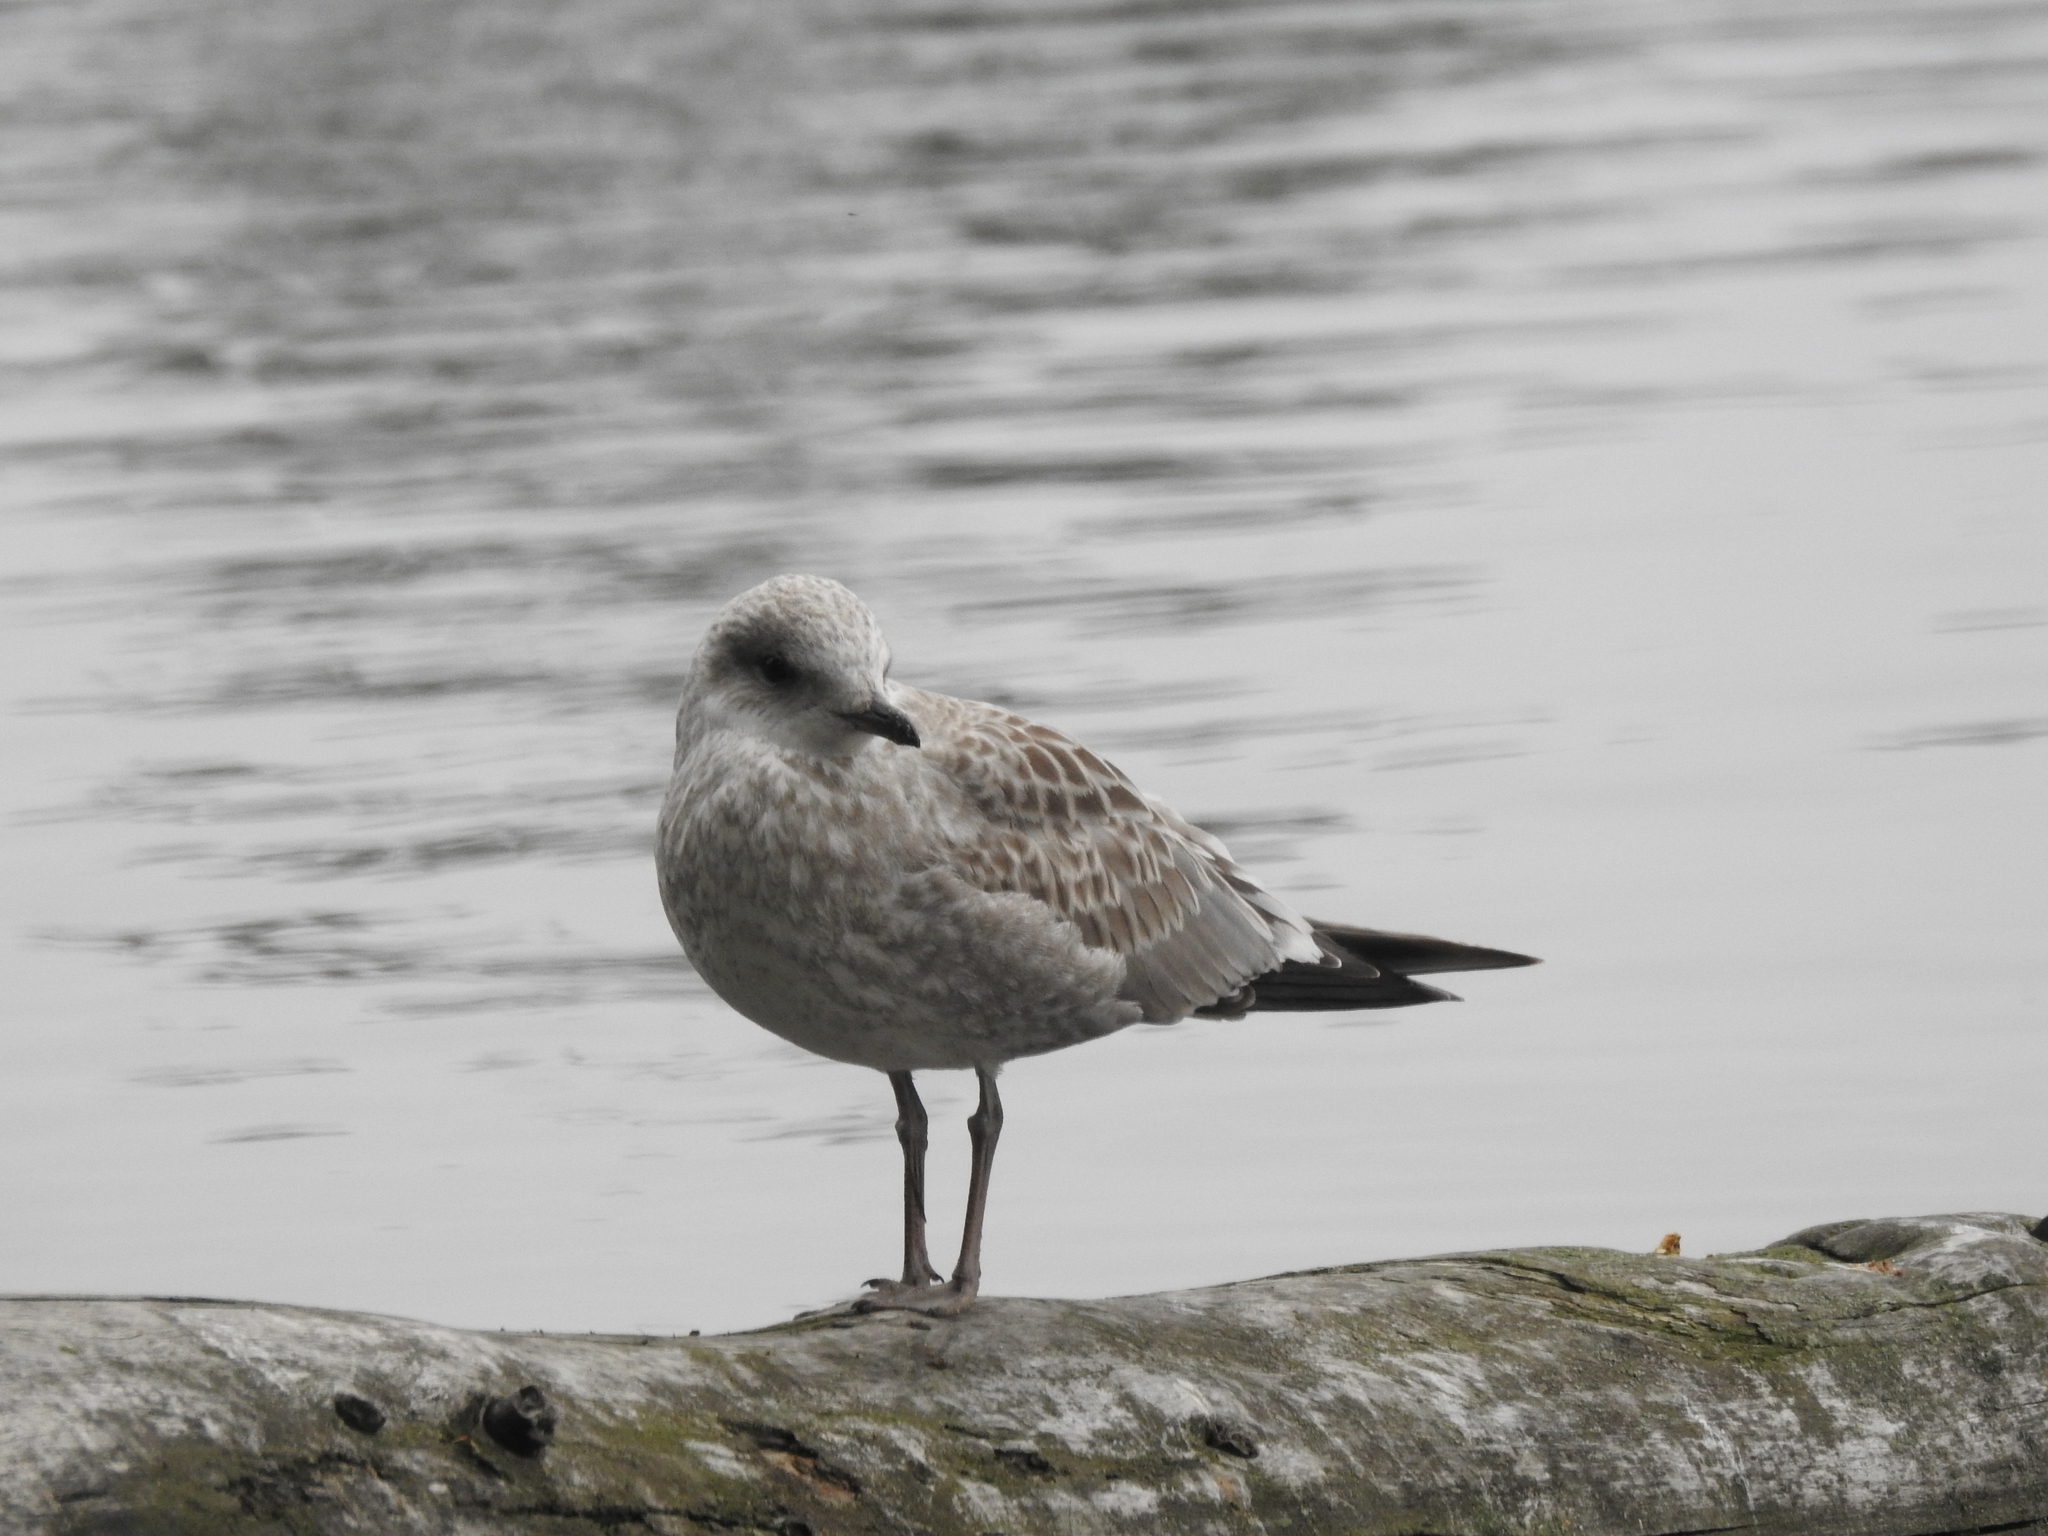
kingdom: Animalia
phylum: Chordata
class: Aves
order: Charadriiformes
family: Laridae
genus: Larus
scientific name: Larus canus
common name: Mew gull
